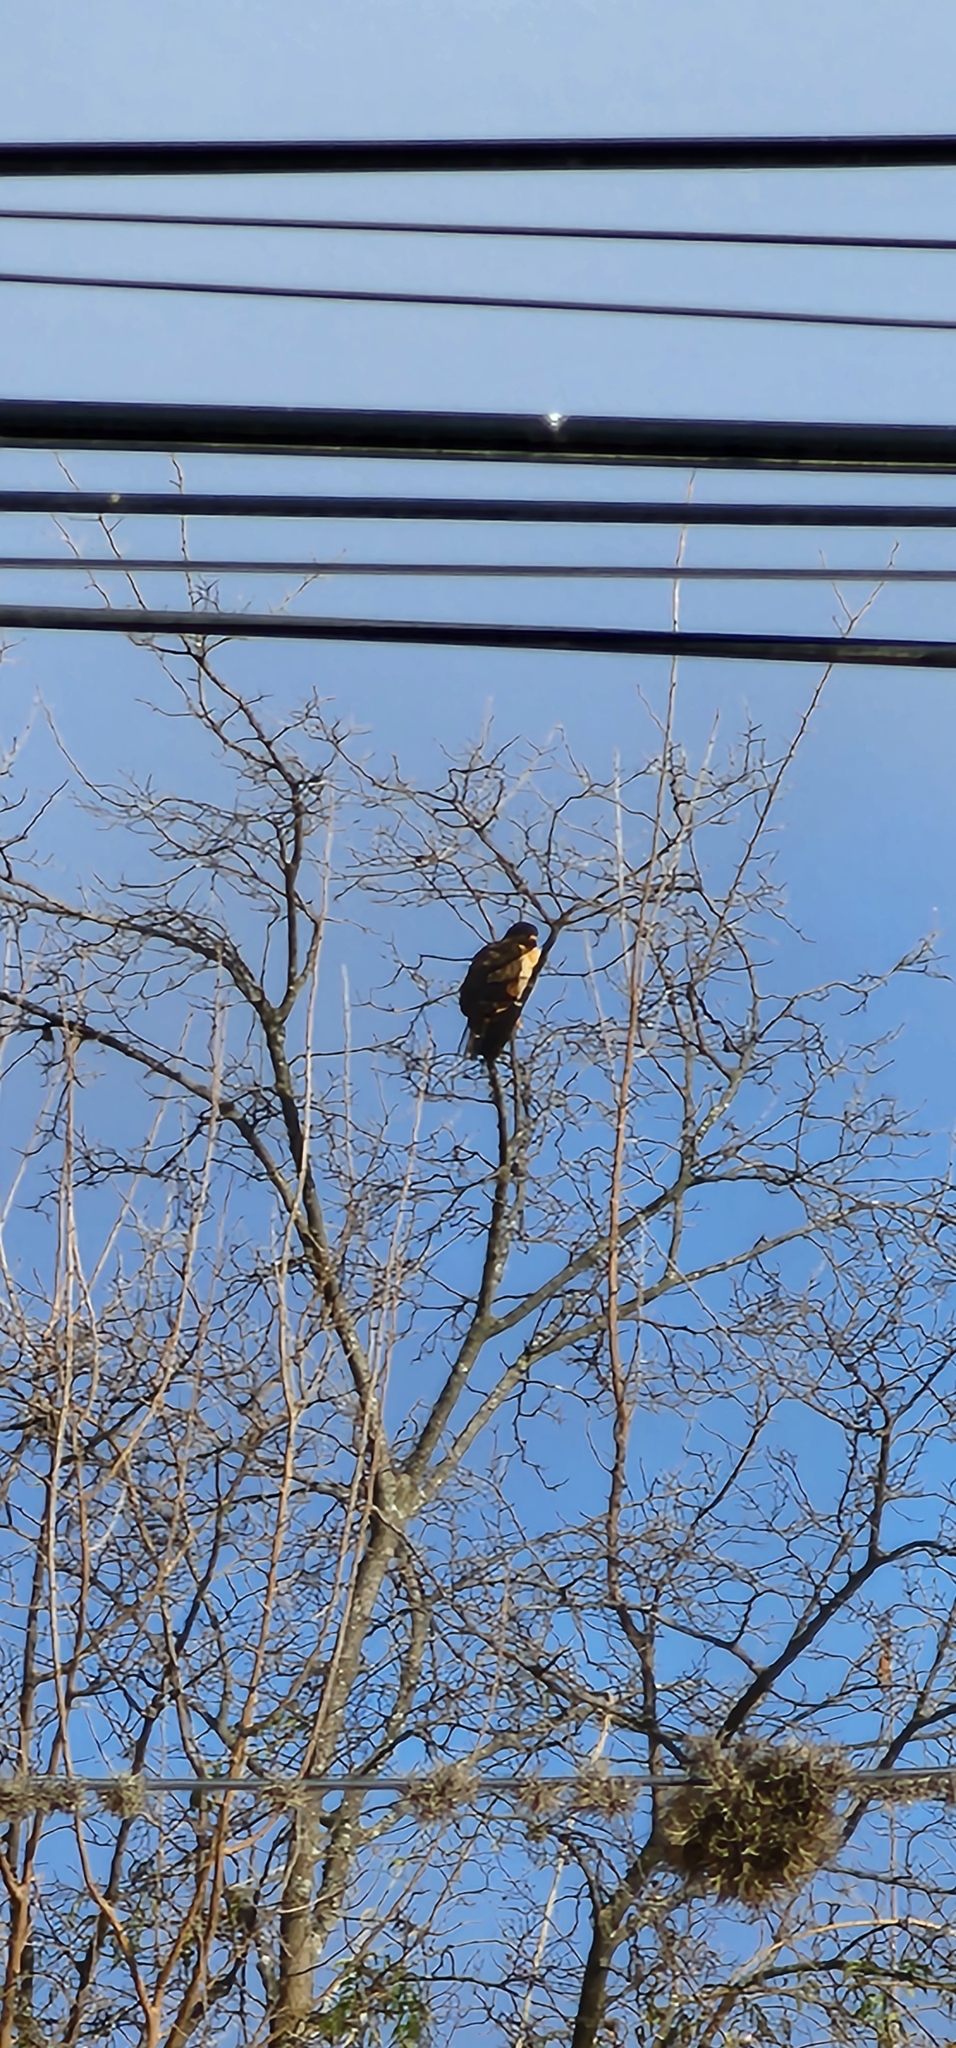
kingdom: Animalia
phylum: Chordata
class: Aves
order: Accipitriformes
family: Accipitridae
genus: Rupornis
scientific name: Rupornis magnirostris
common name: Roadside hawk
